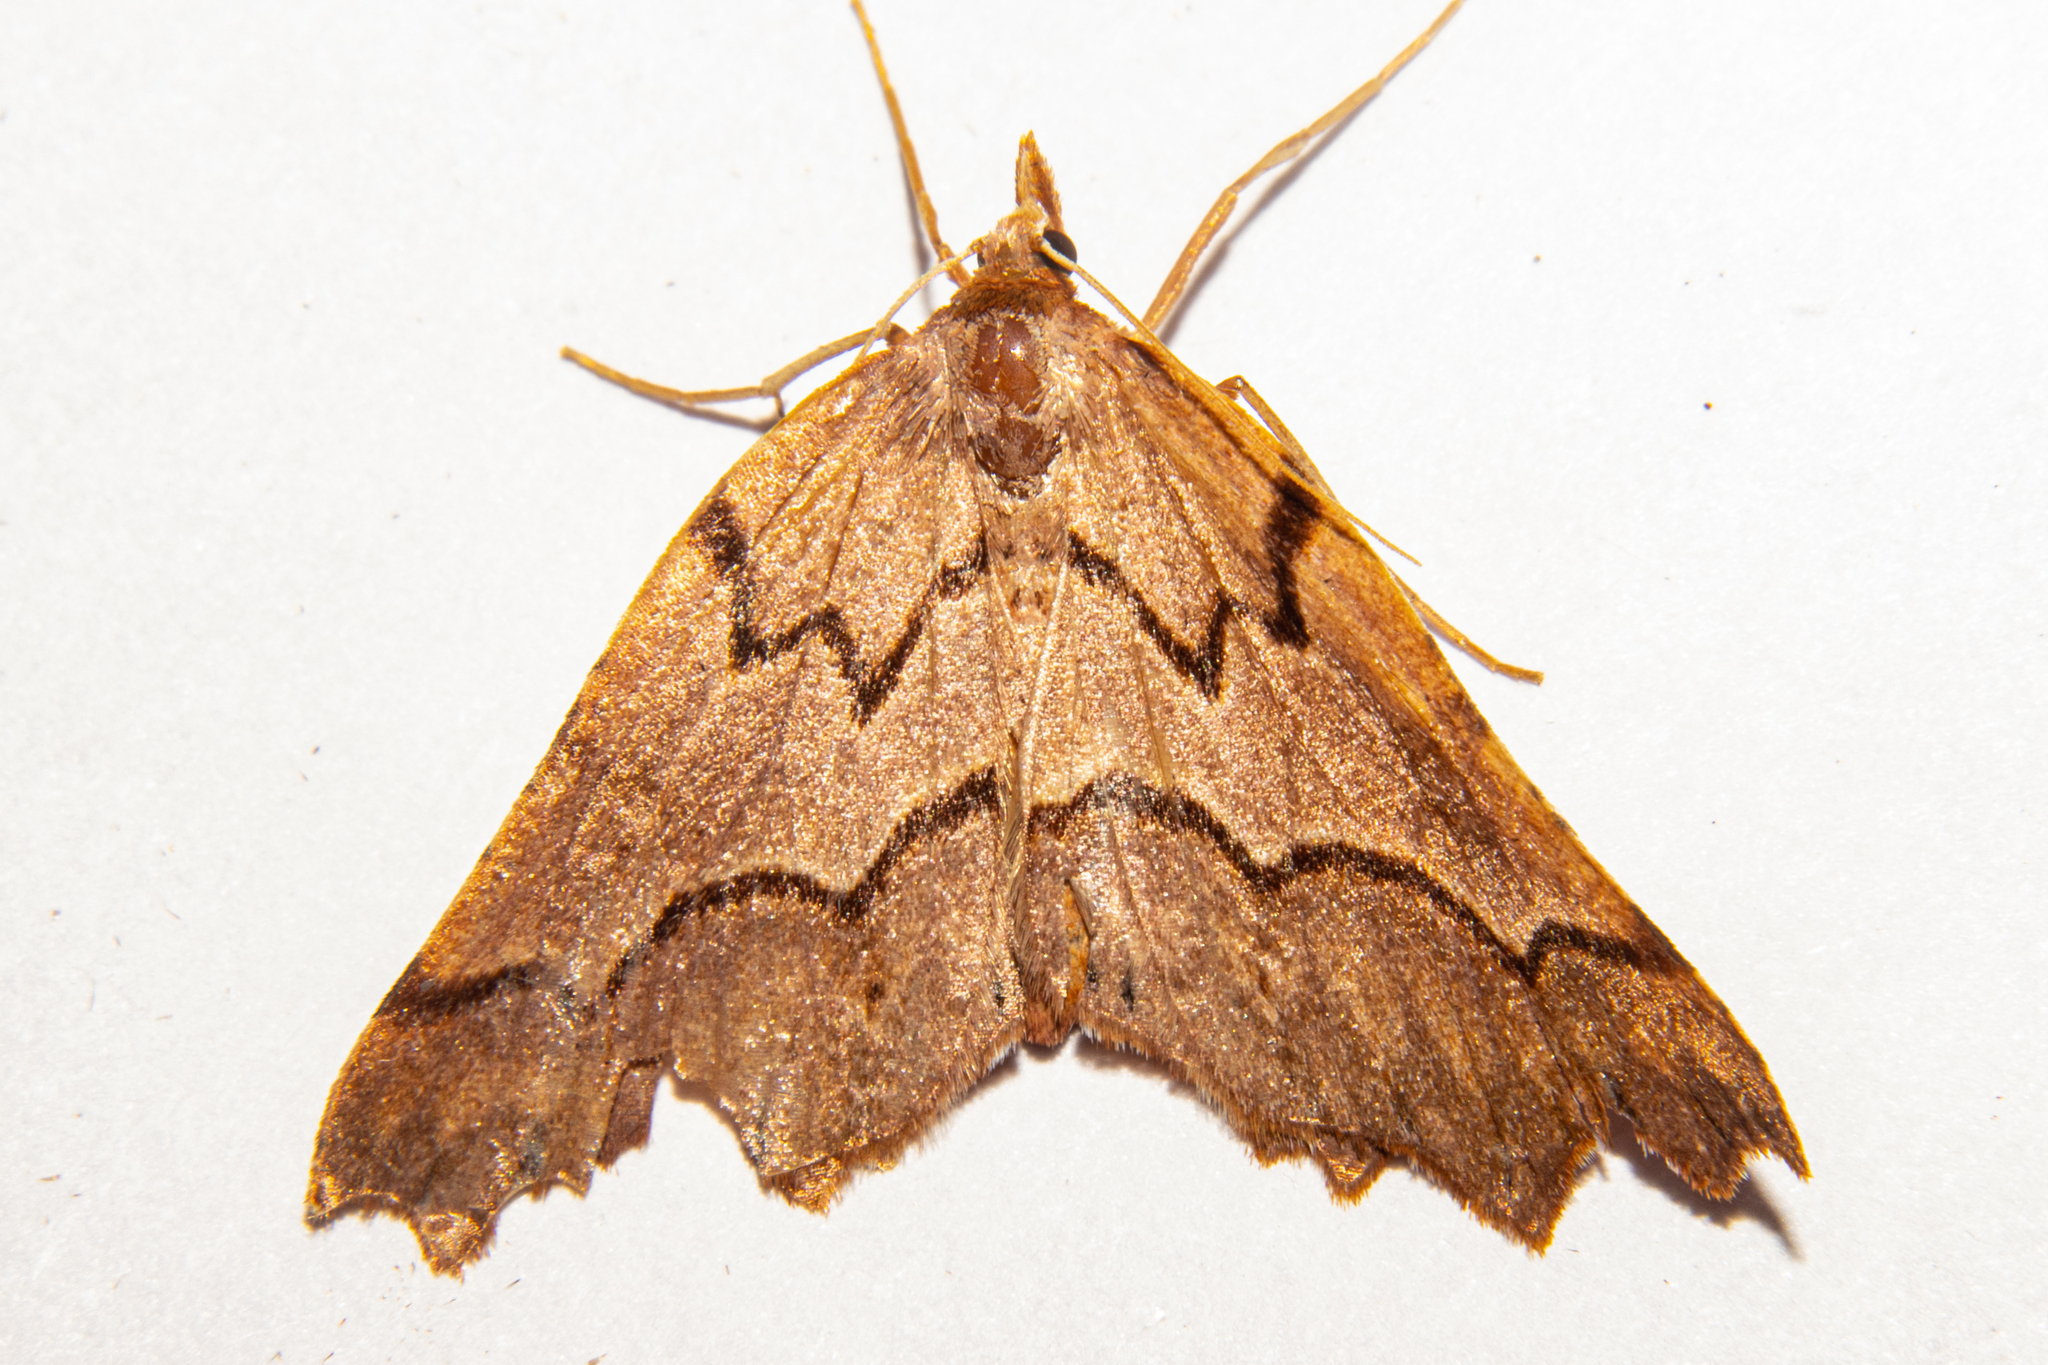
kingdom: Animalia
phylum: Arthropoda
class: Insecta
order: Lepidoptera
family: Geometridae
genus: Ischalis
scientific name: Ischalis fortinata
